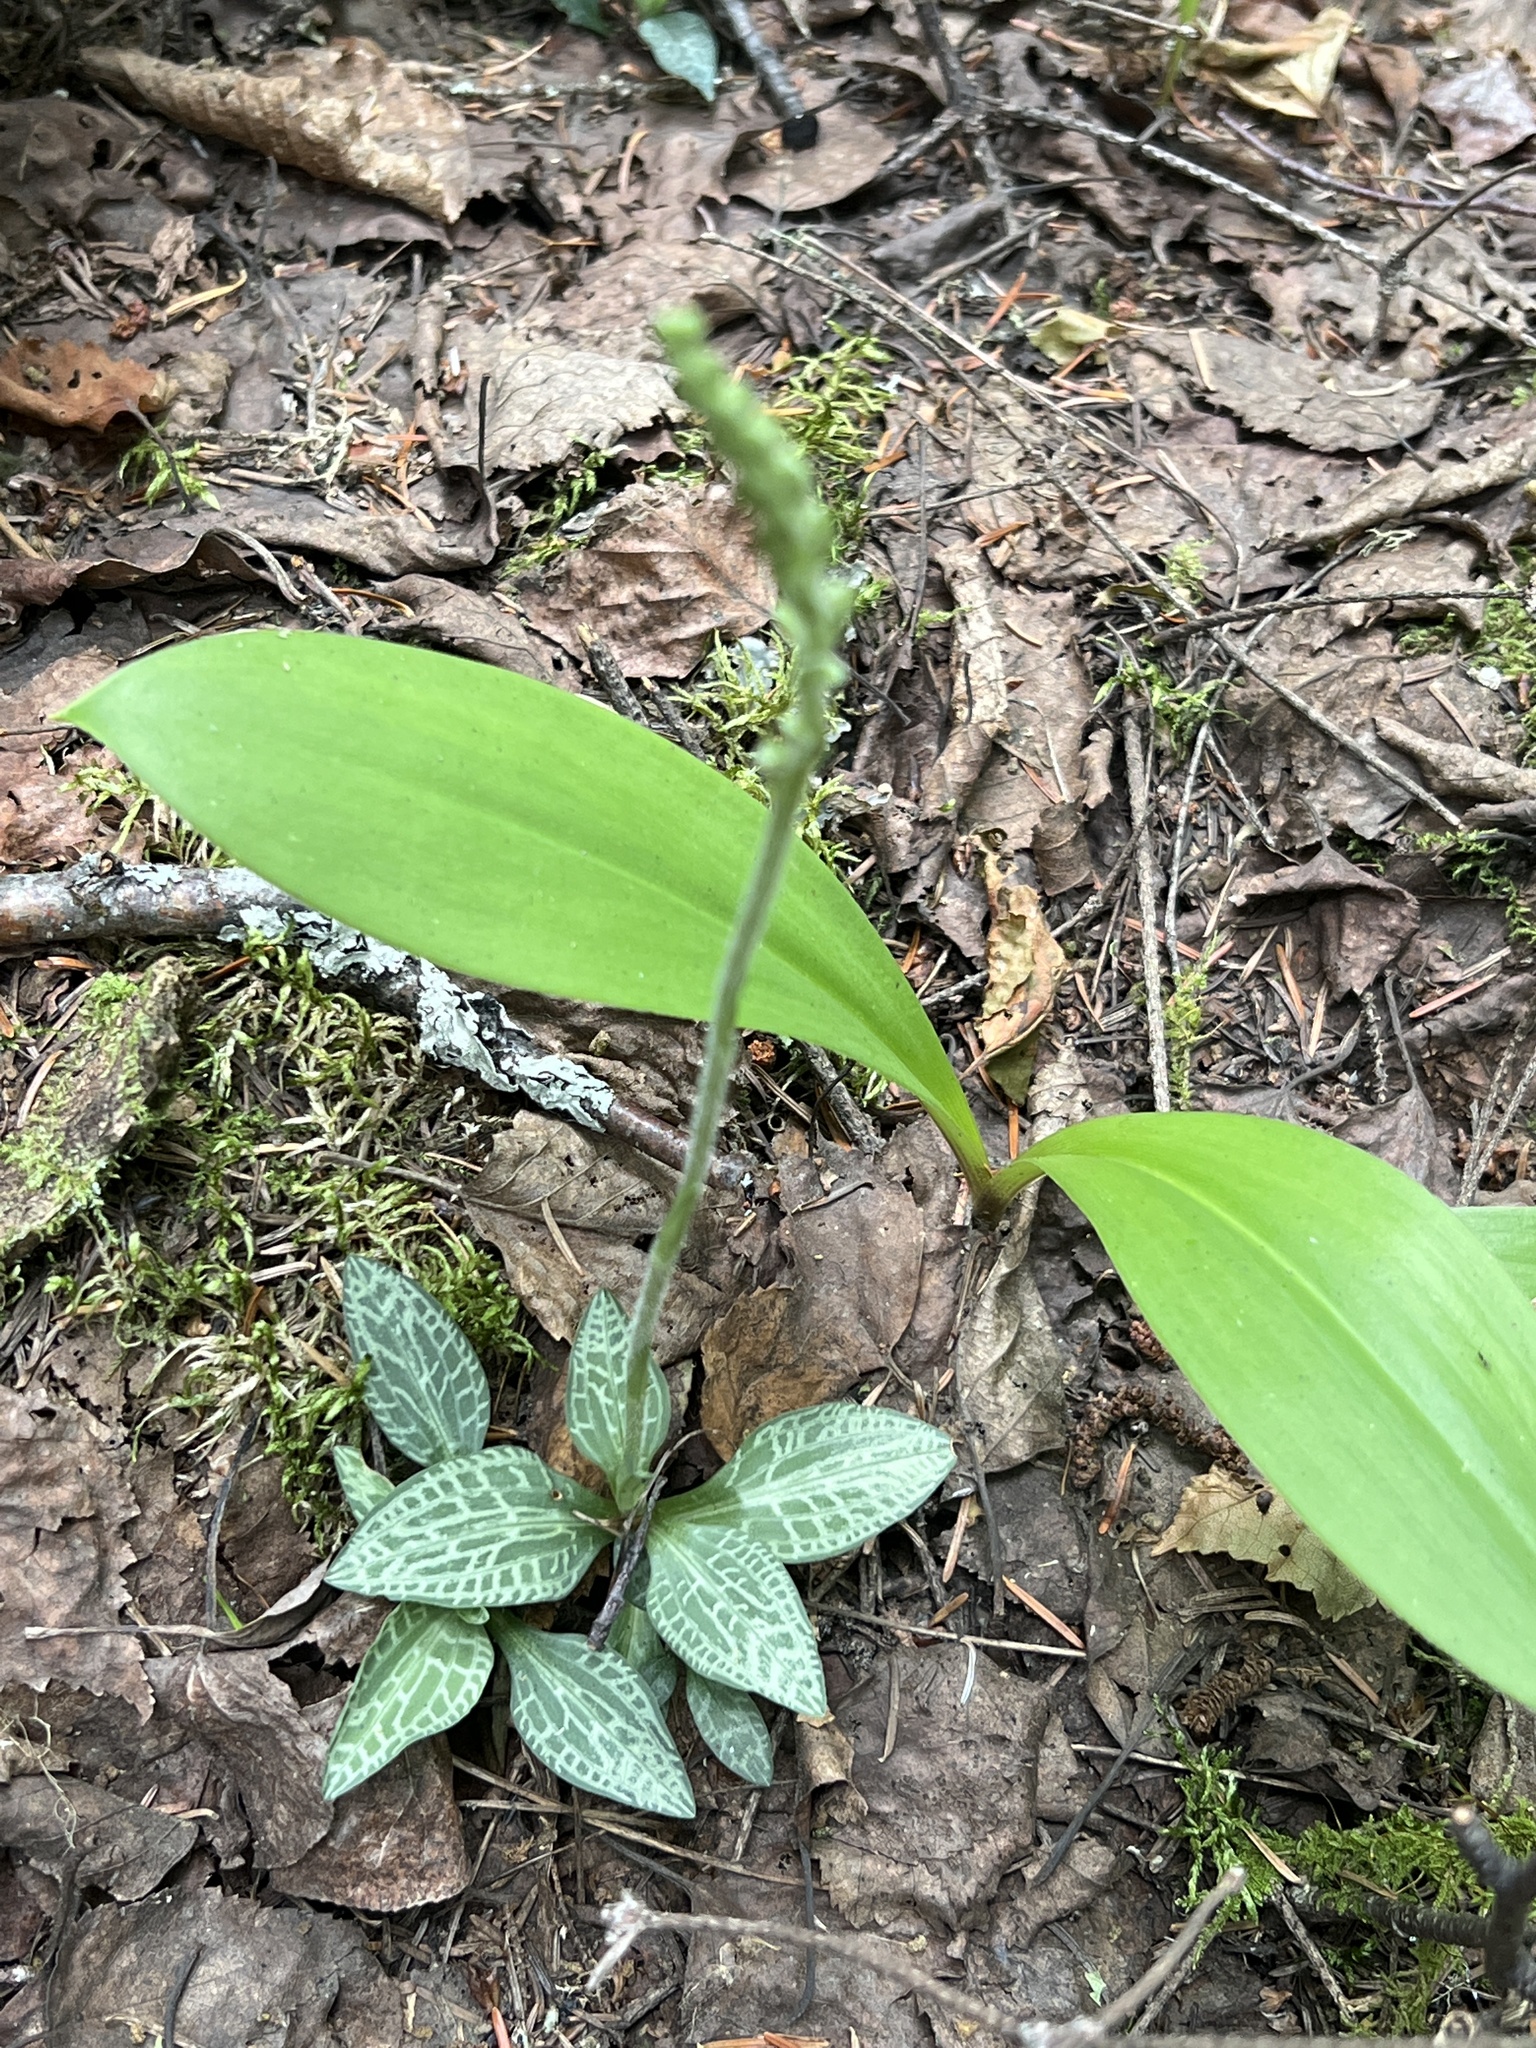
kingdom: Plantae
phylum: Tracheophyta
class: Liliopsida
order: Asparagales
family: Orchidaceae
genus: Goodyera
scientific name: Goodyera tesselata
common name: Checkered rattlesnake-plantain
